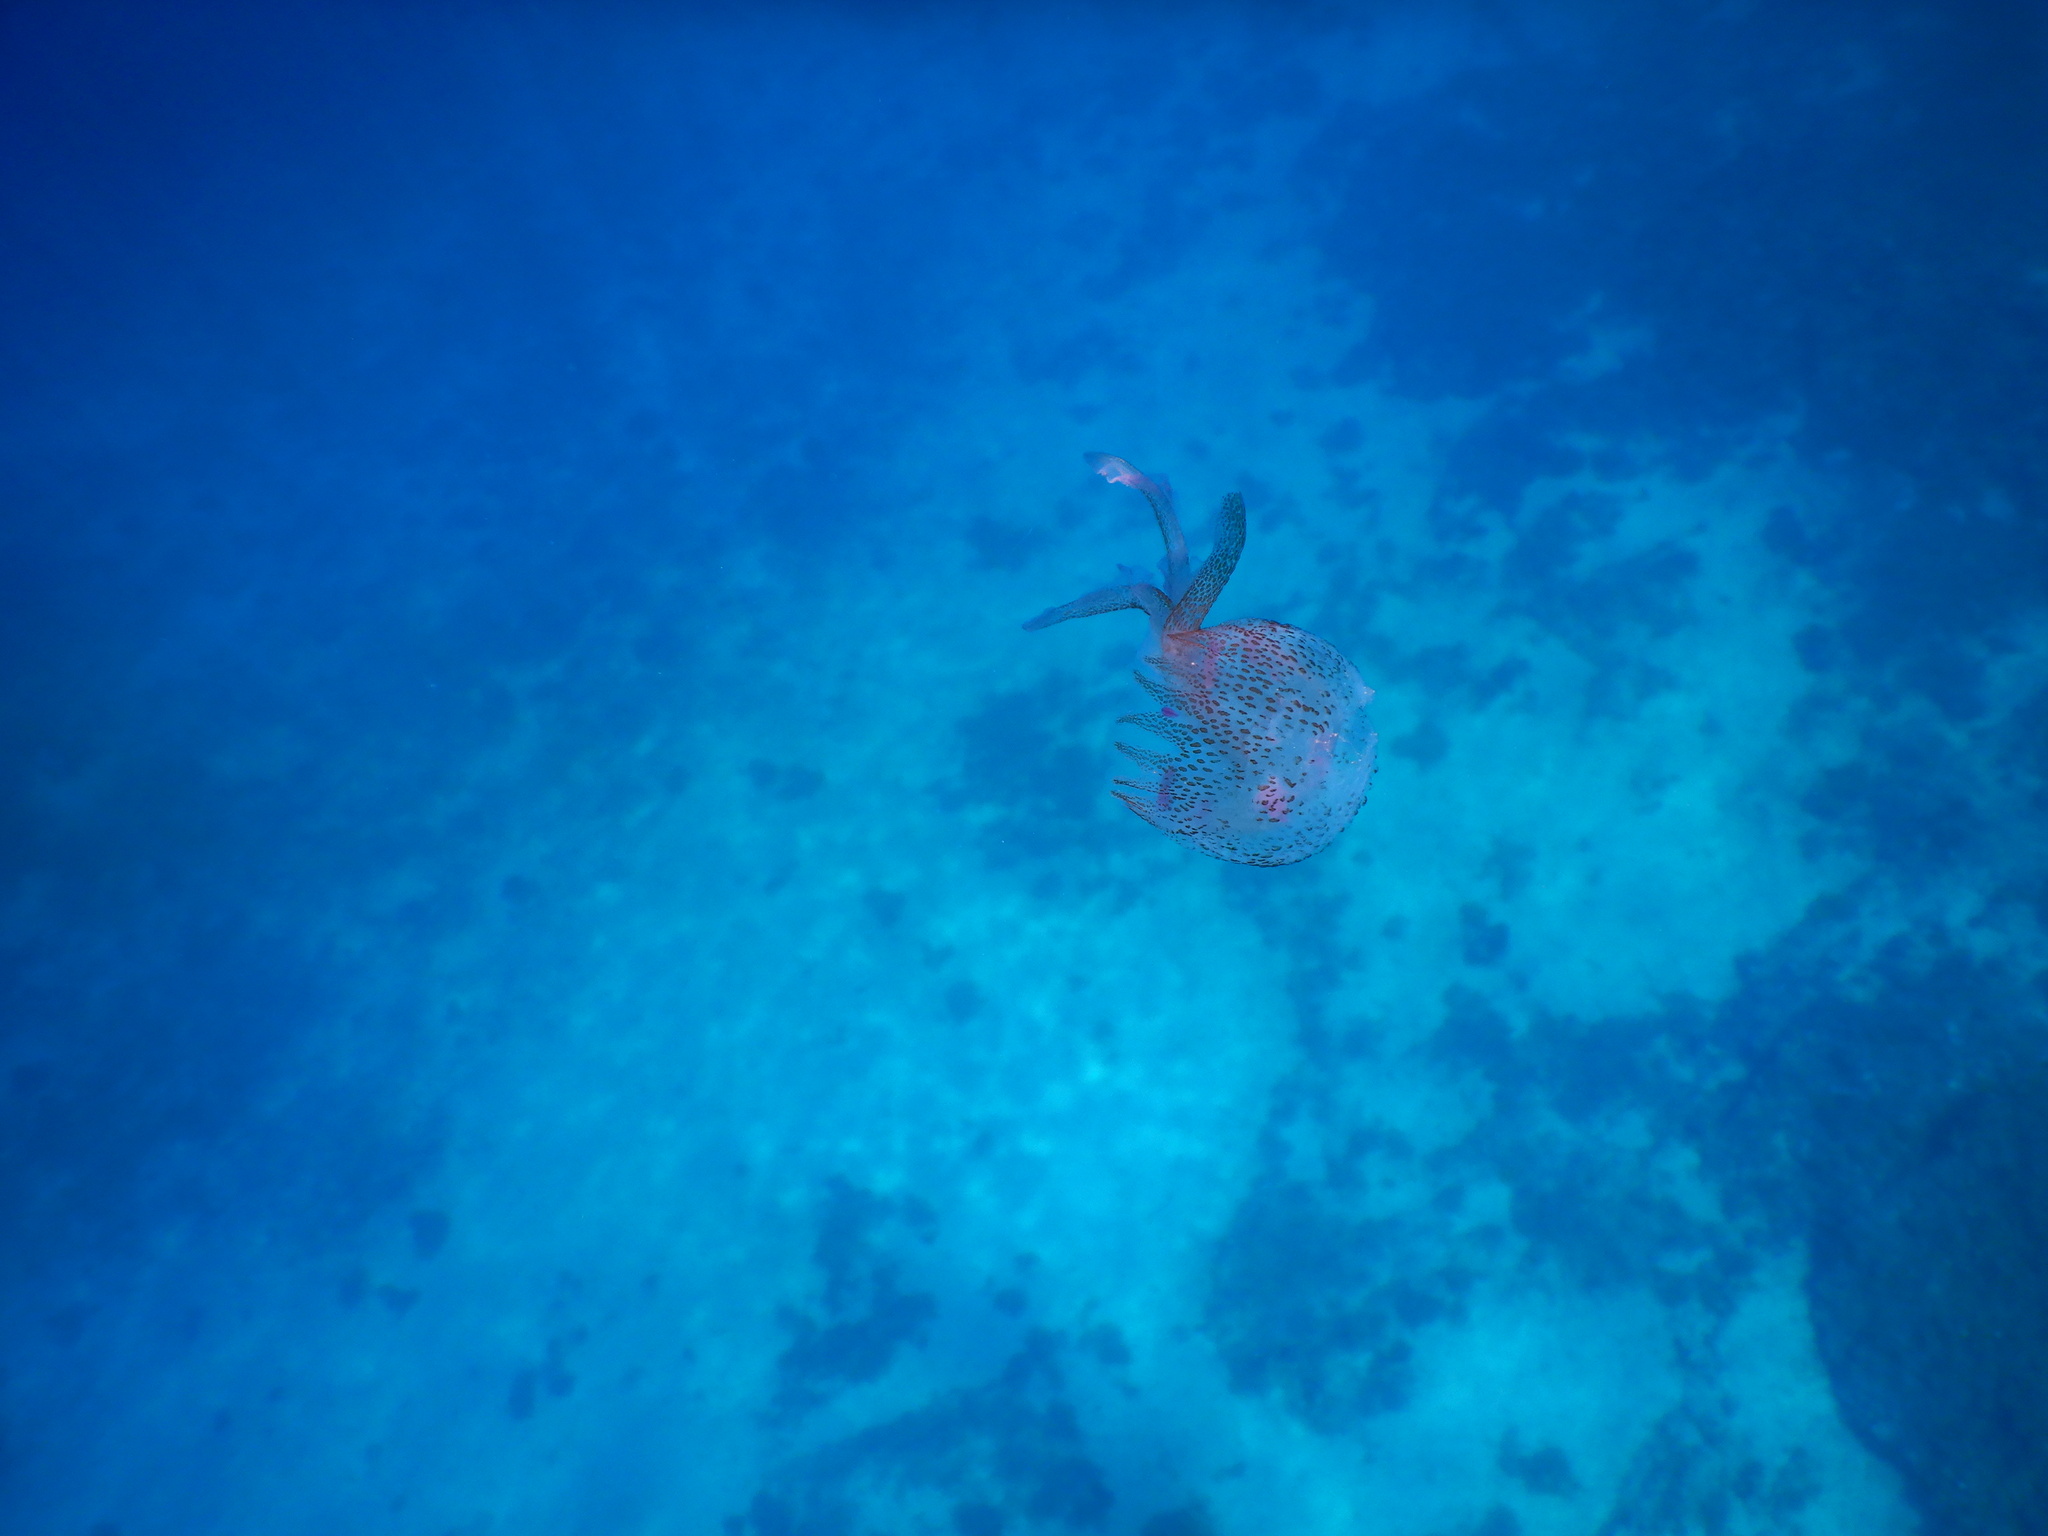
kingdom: Animalia
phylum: Cnidaria
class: Scyphozoa
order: Semaeostomeae
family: Pelagiidae
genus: Pelagia
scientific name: Pelagia noctiluca
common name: Mauve stinger
